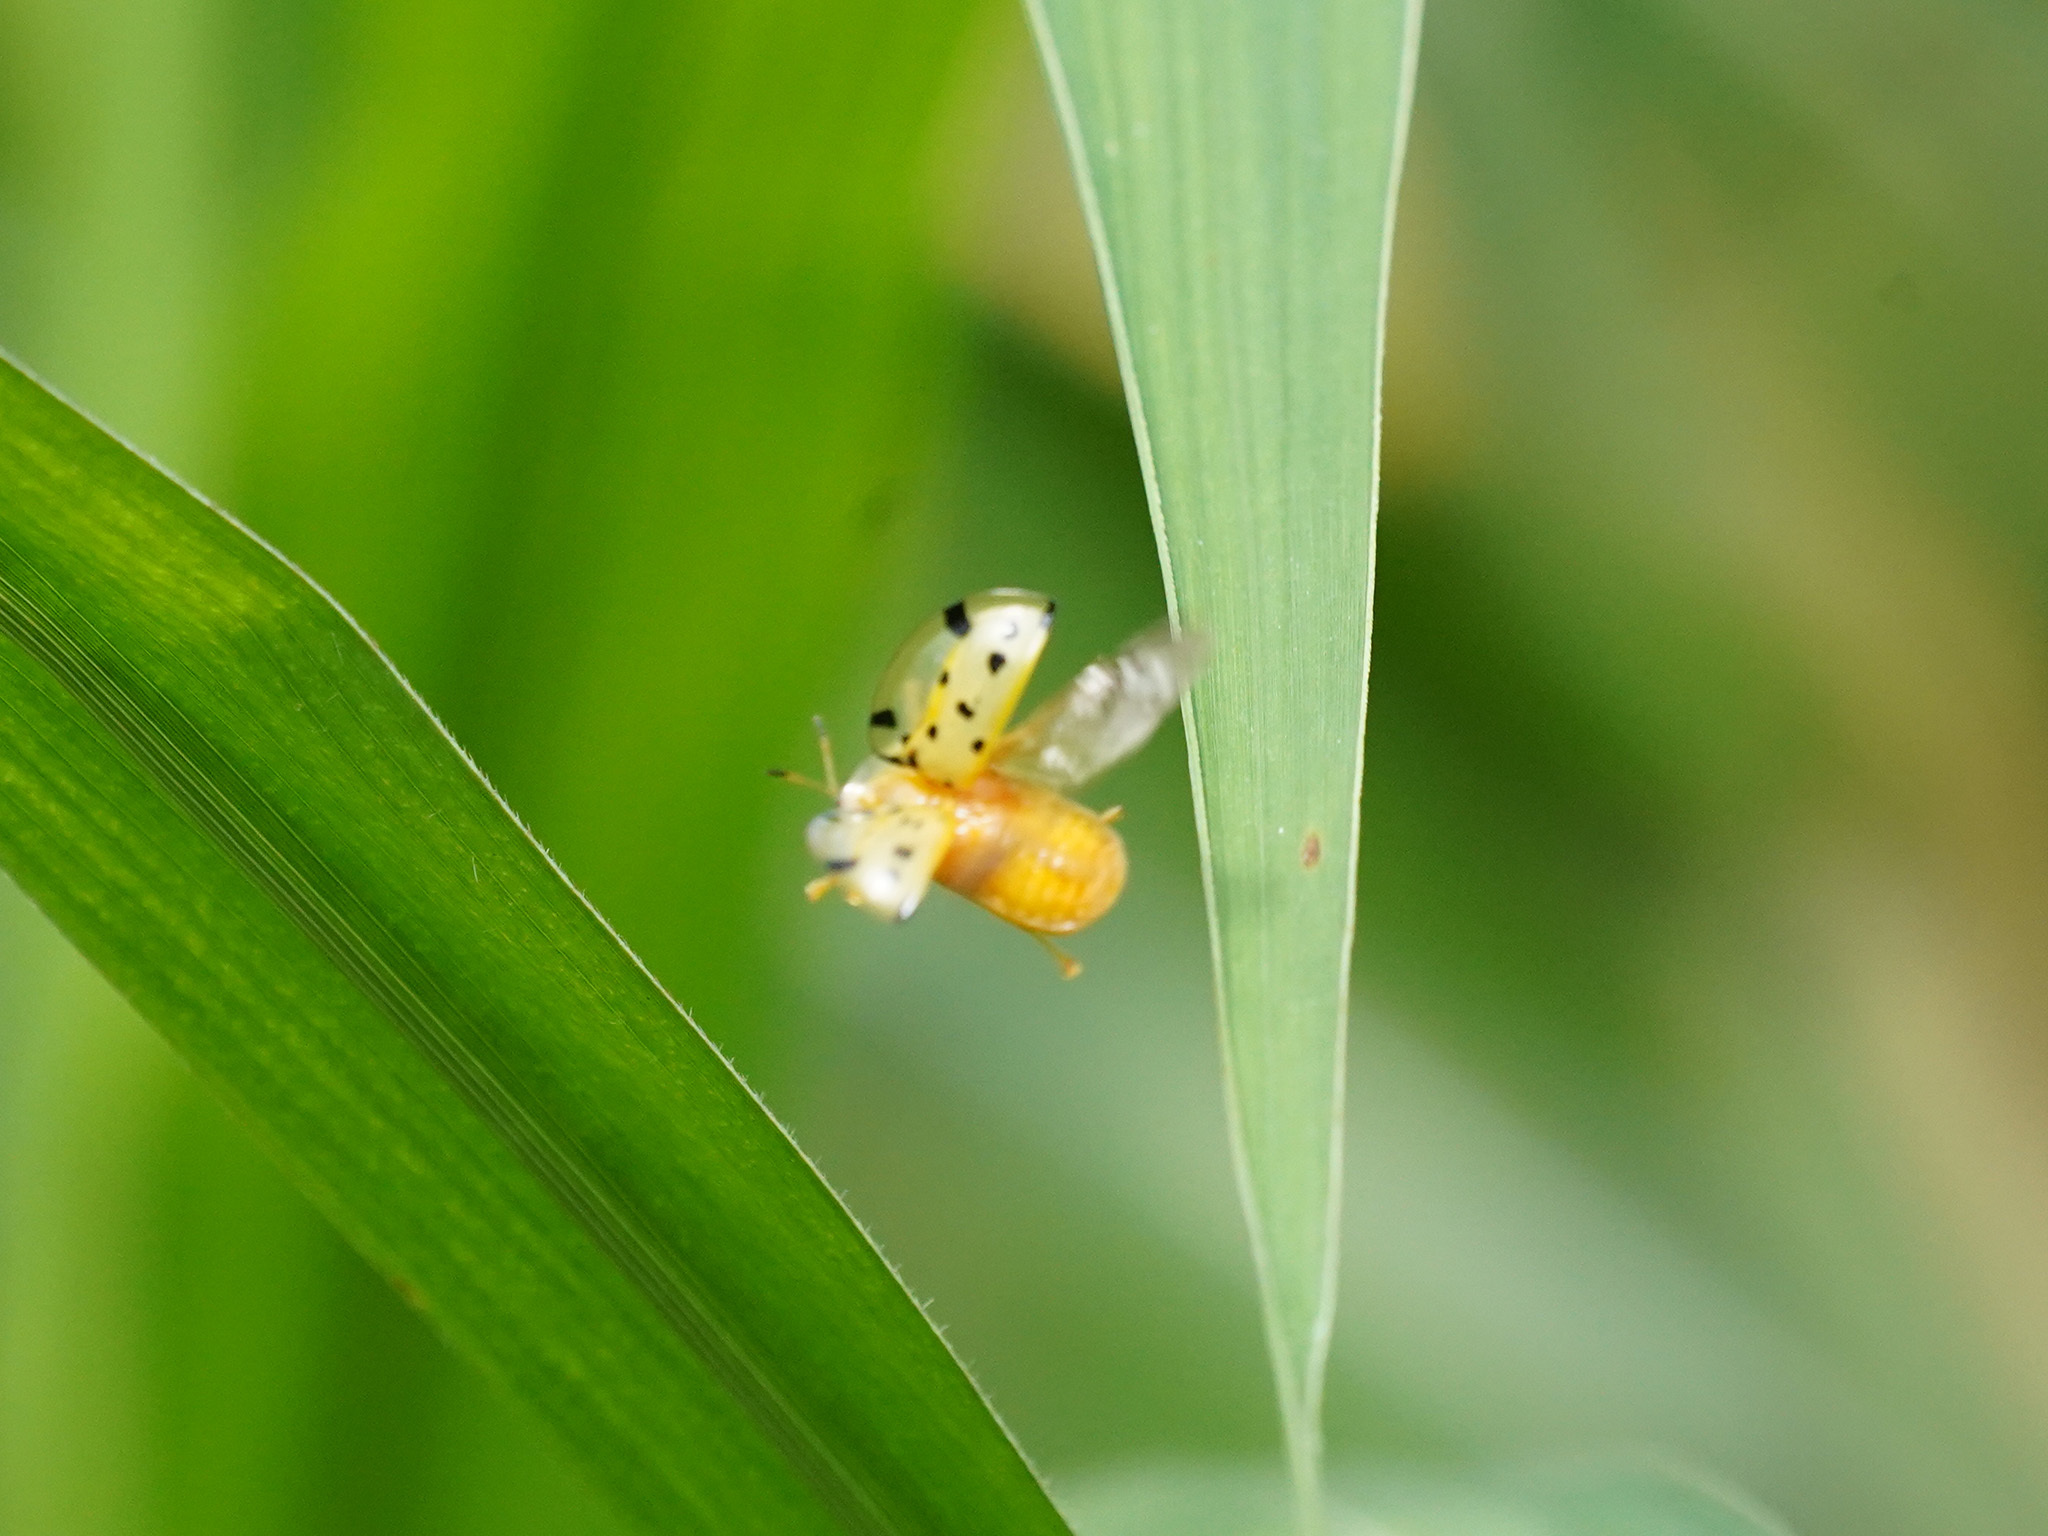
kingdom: Animalia
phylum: Arthropoda
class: Insecta
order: Coleoptera
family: Chrysomelidae
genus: Aspidimorpha
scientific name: Aspidimorpha miliaris
